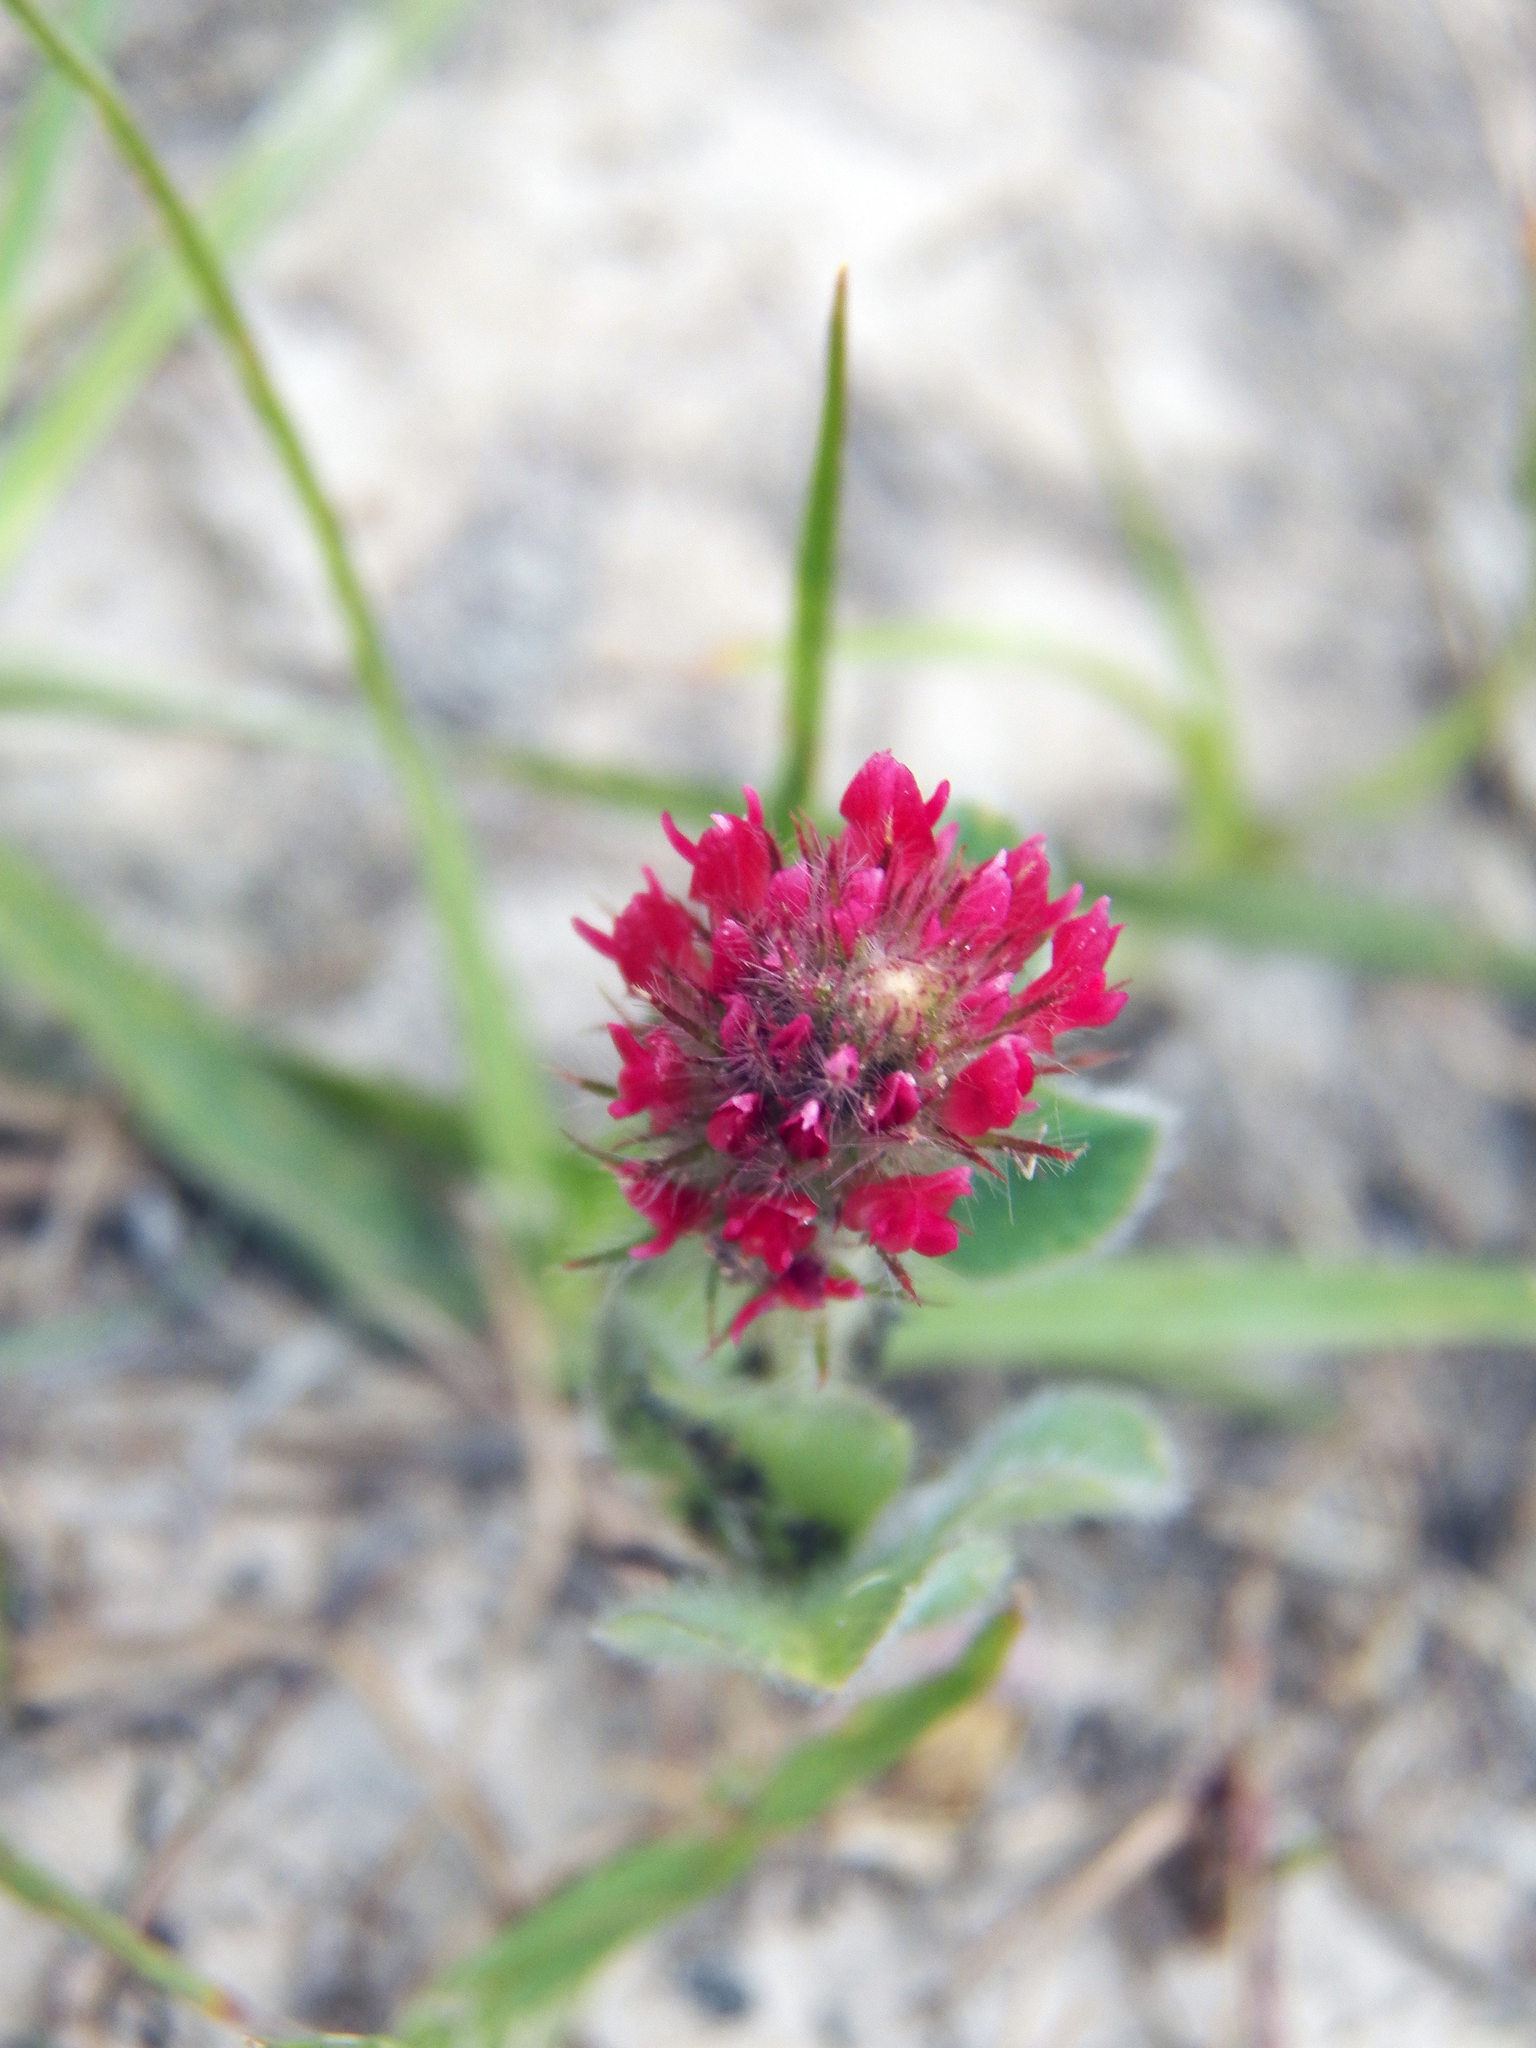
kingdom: Plantae
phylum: Tracheophyta
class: Magnoliopsida
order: Fabales
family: Fabaceae
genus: Trifolium
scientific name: Trifolium incarnatum
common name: Crimson clover
